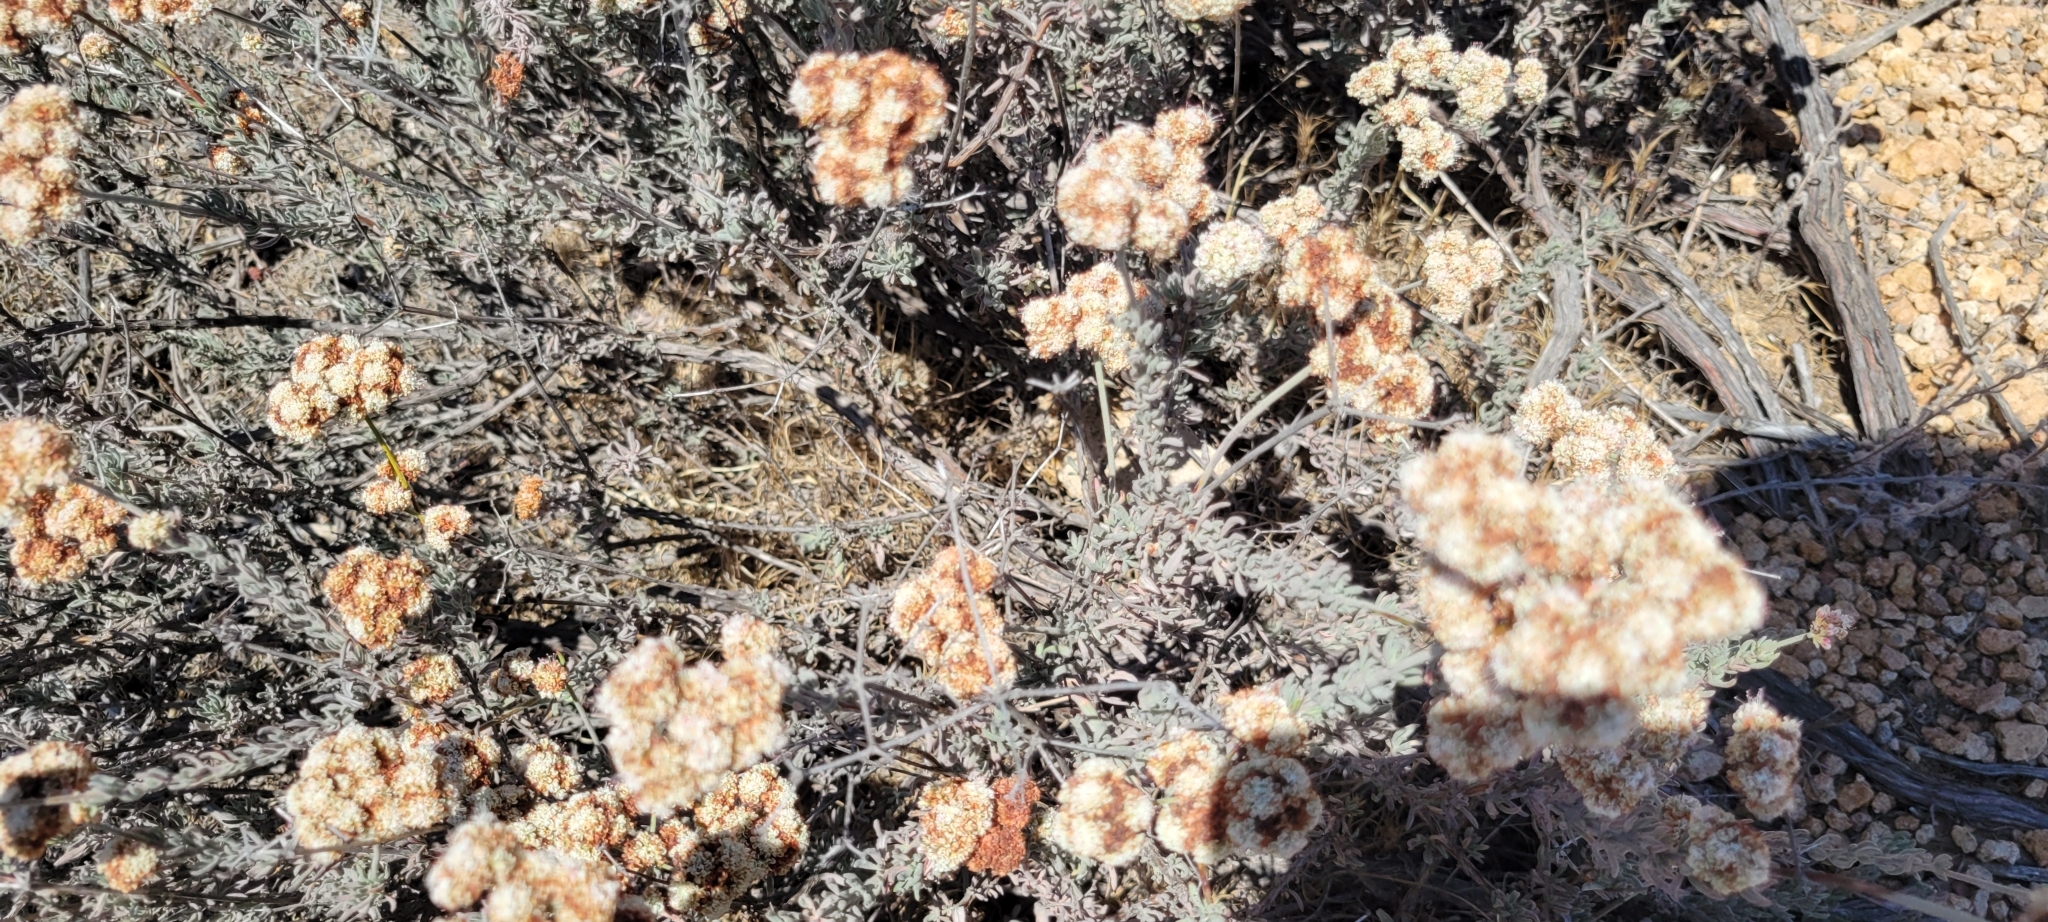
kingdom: Plantae
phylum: Tracheophyta
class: Magnoliopsida
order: Caryophyllales
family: Polygonaceae
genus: Eriogonum
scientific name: Eriogonum fasciculatum
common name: California wild buckwheat
